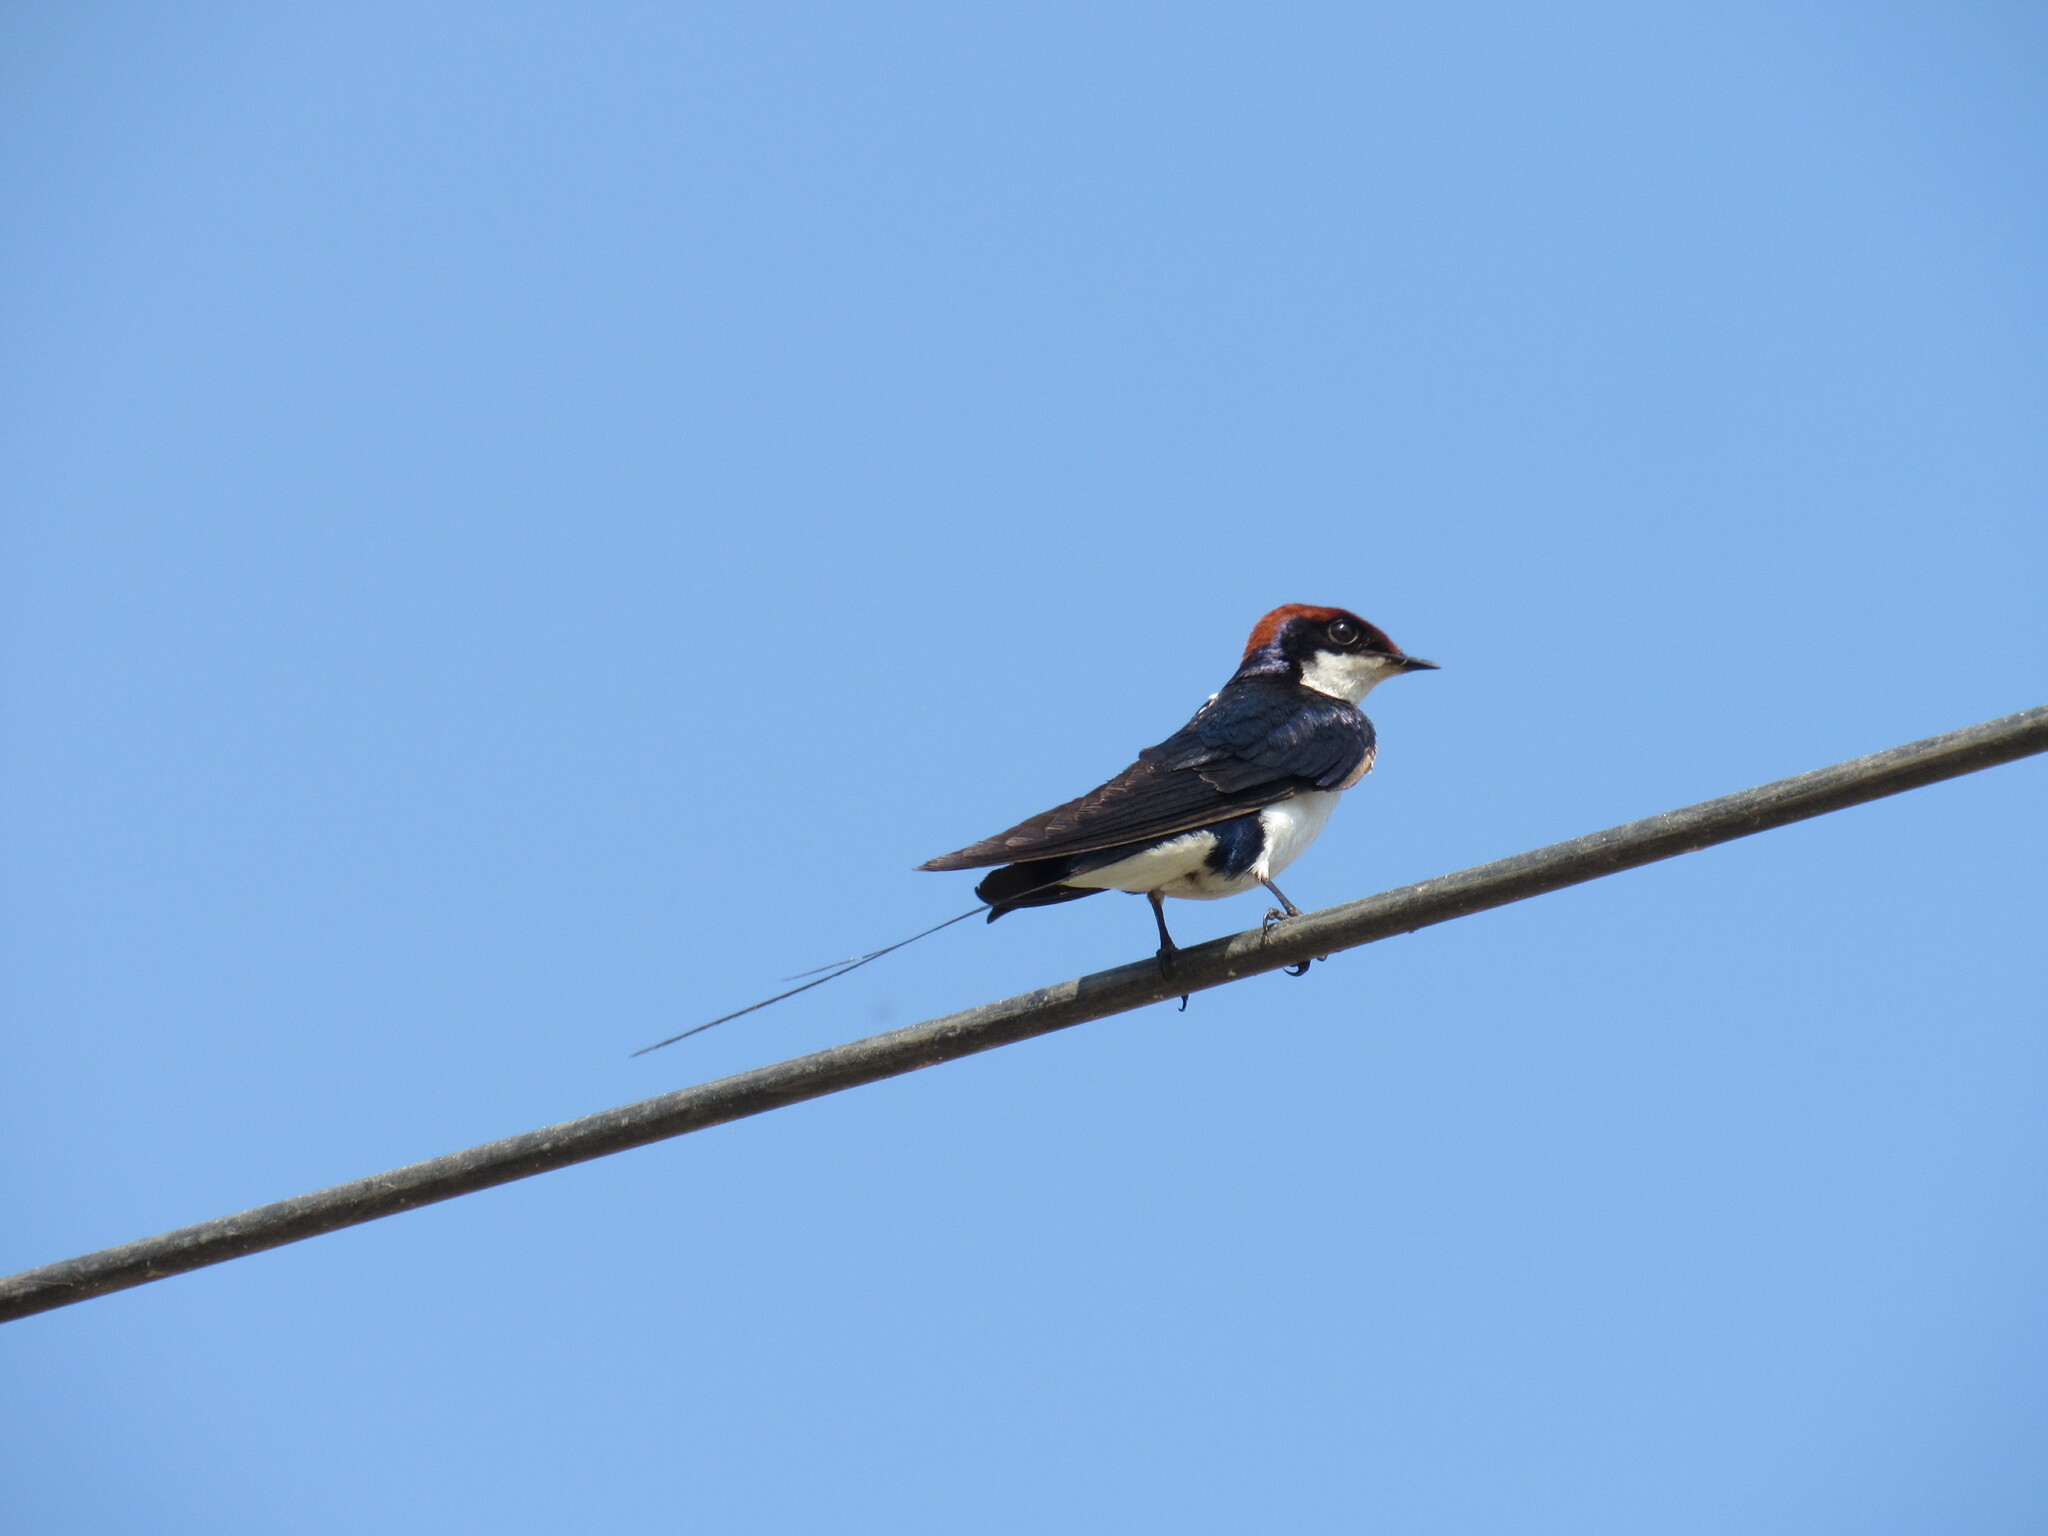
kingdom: Animalia
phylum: Chordata
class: Aves
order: Passeriformes
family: Hirundinidae
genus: Hirundo
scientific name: Hirundo smithii
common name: Wire-tailed swallow
